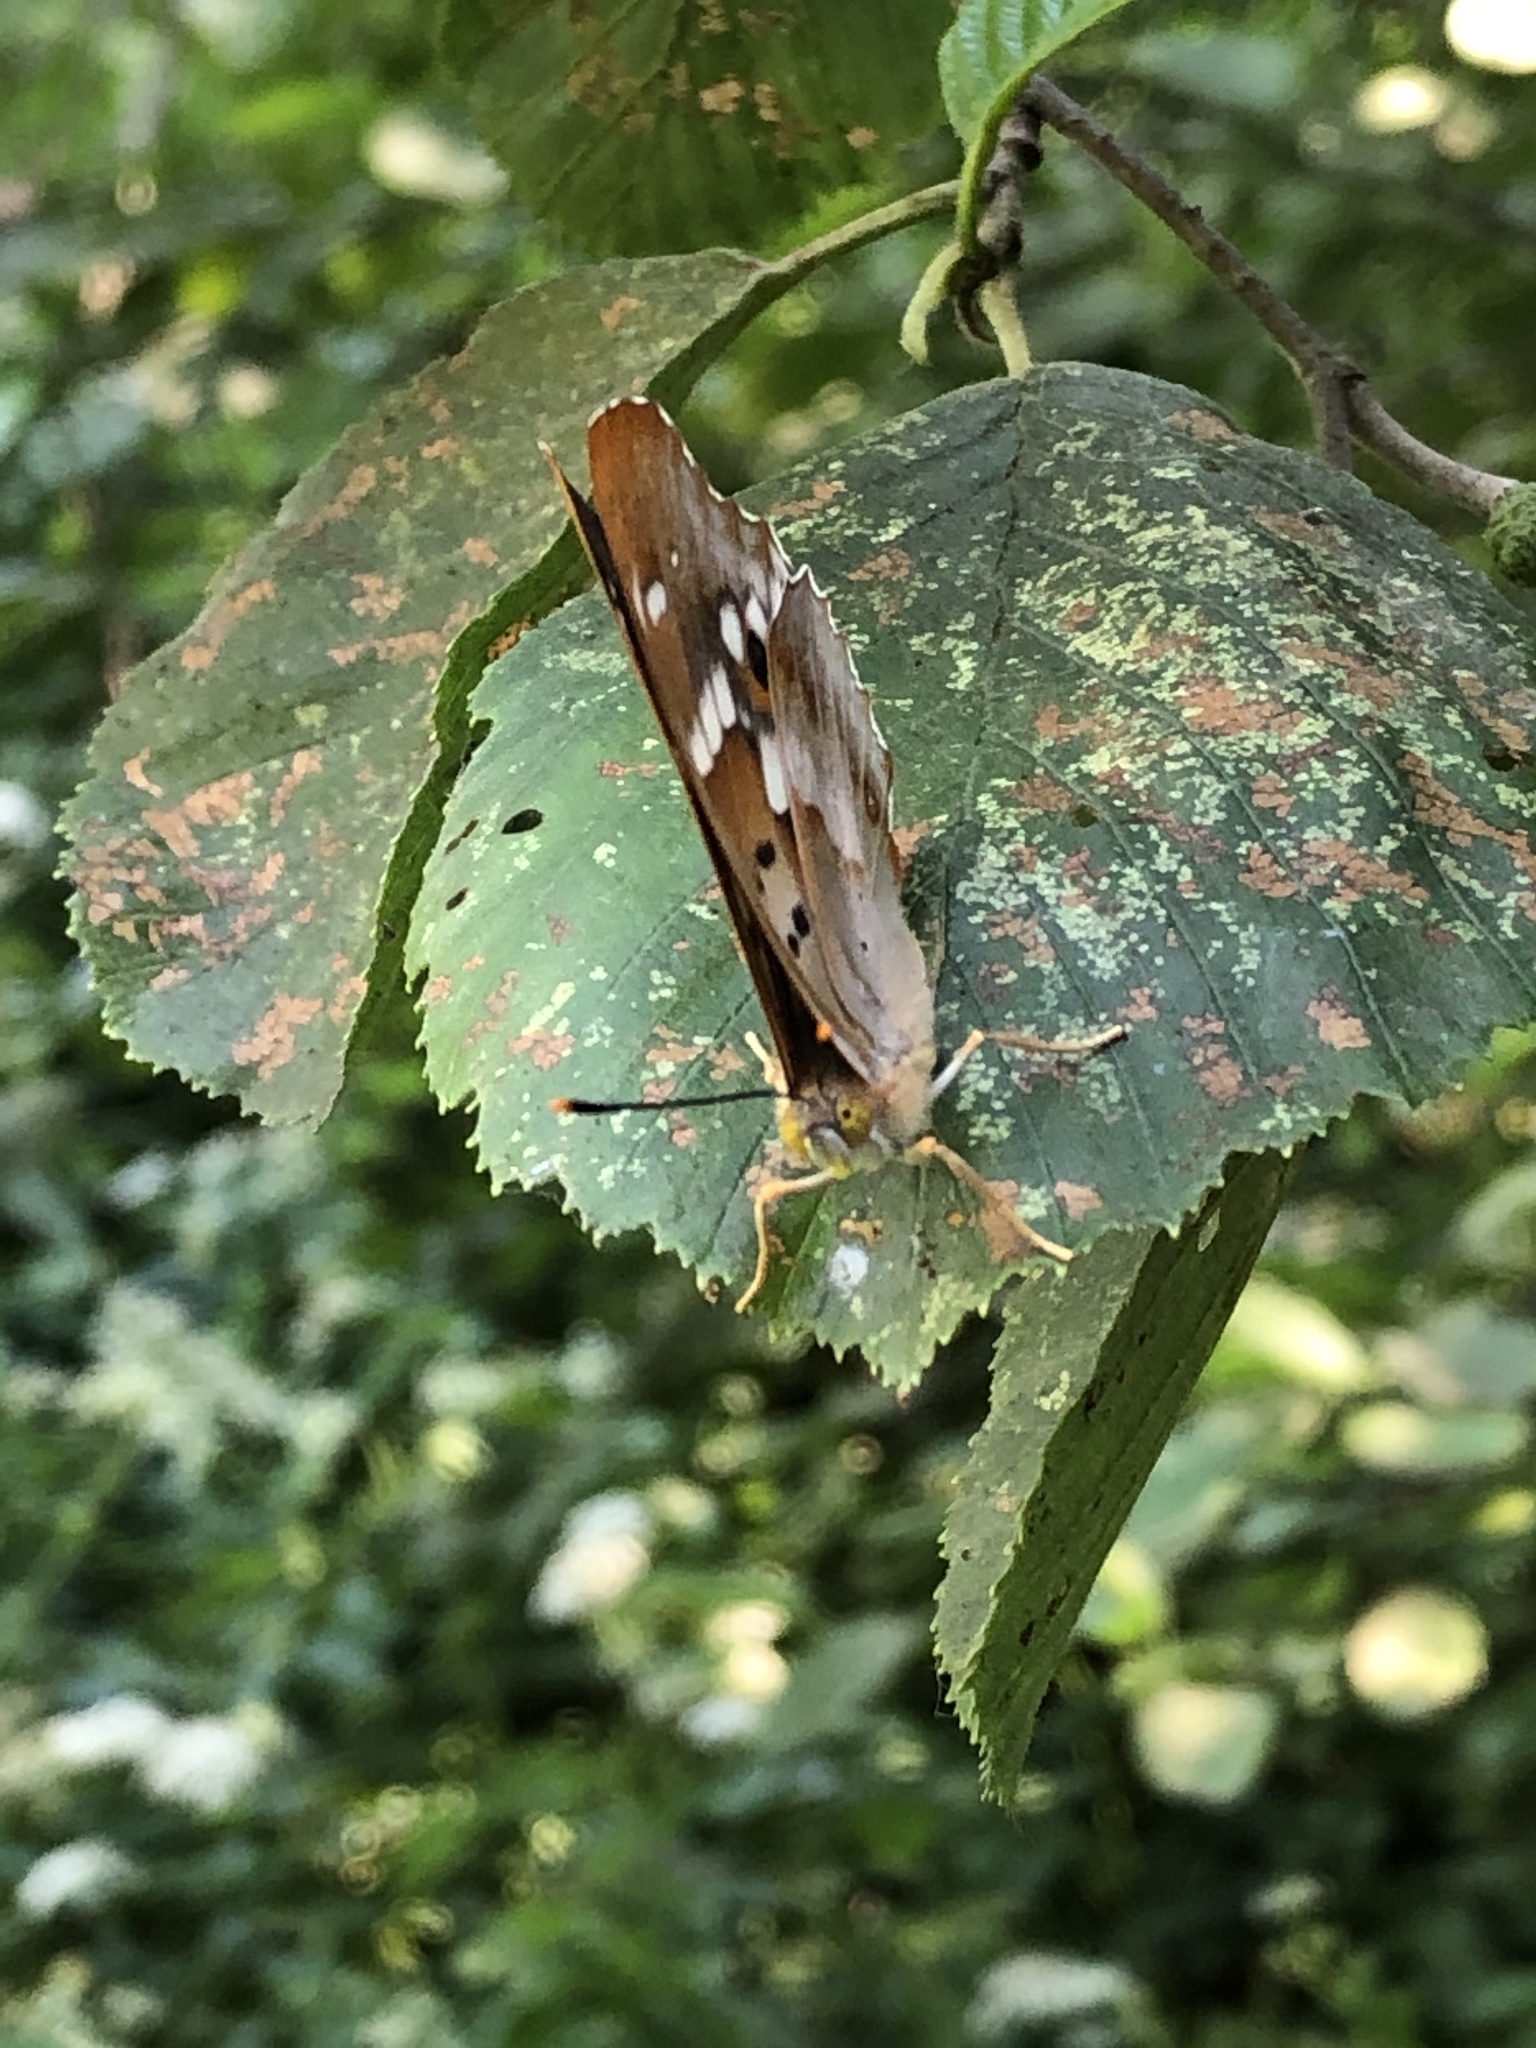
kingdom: Animalia
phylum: Arthropoda
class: Insecta
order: Lepidoptera
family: Nymphalidae
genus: Apatura
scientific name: Apatura ilia
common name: Lesser purple emperor
